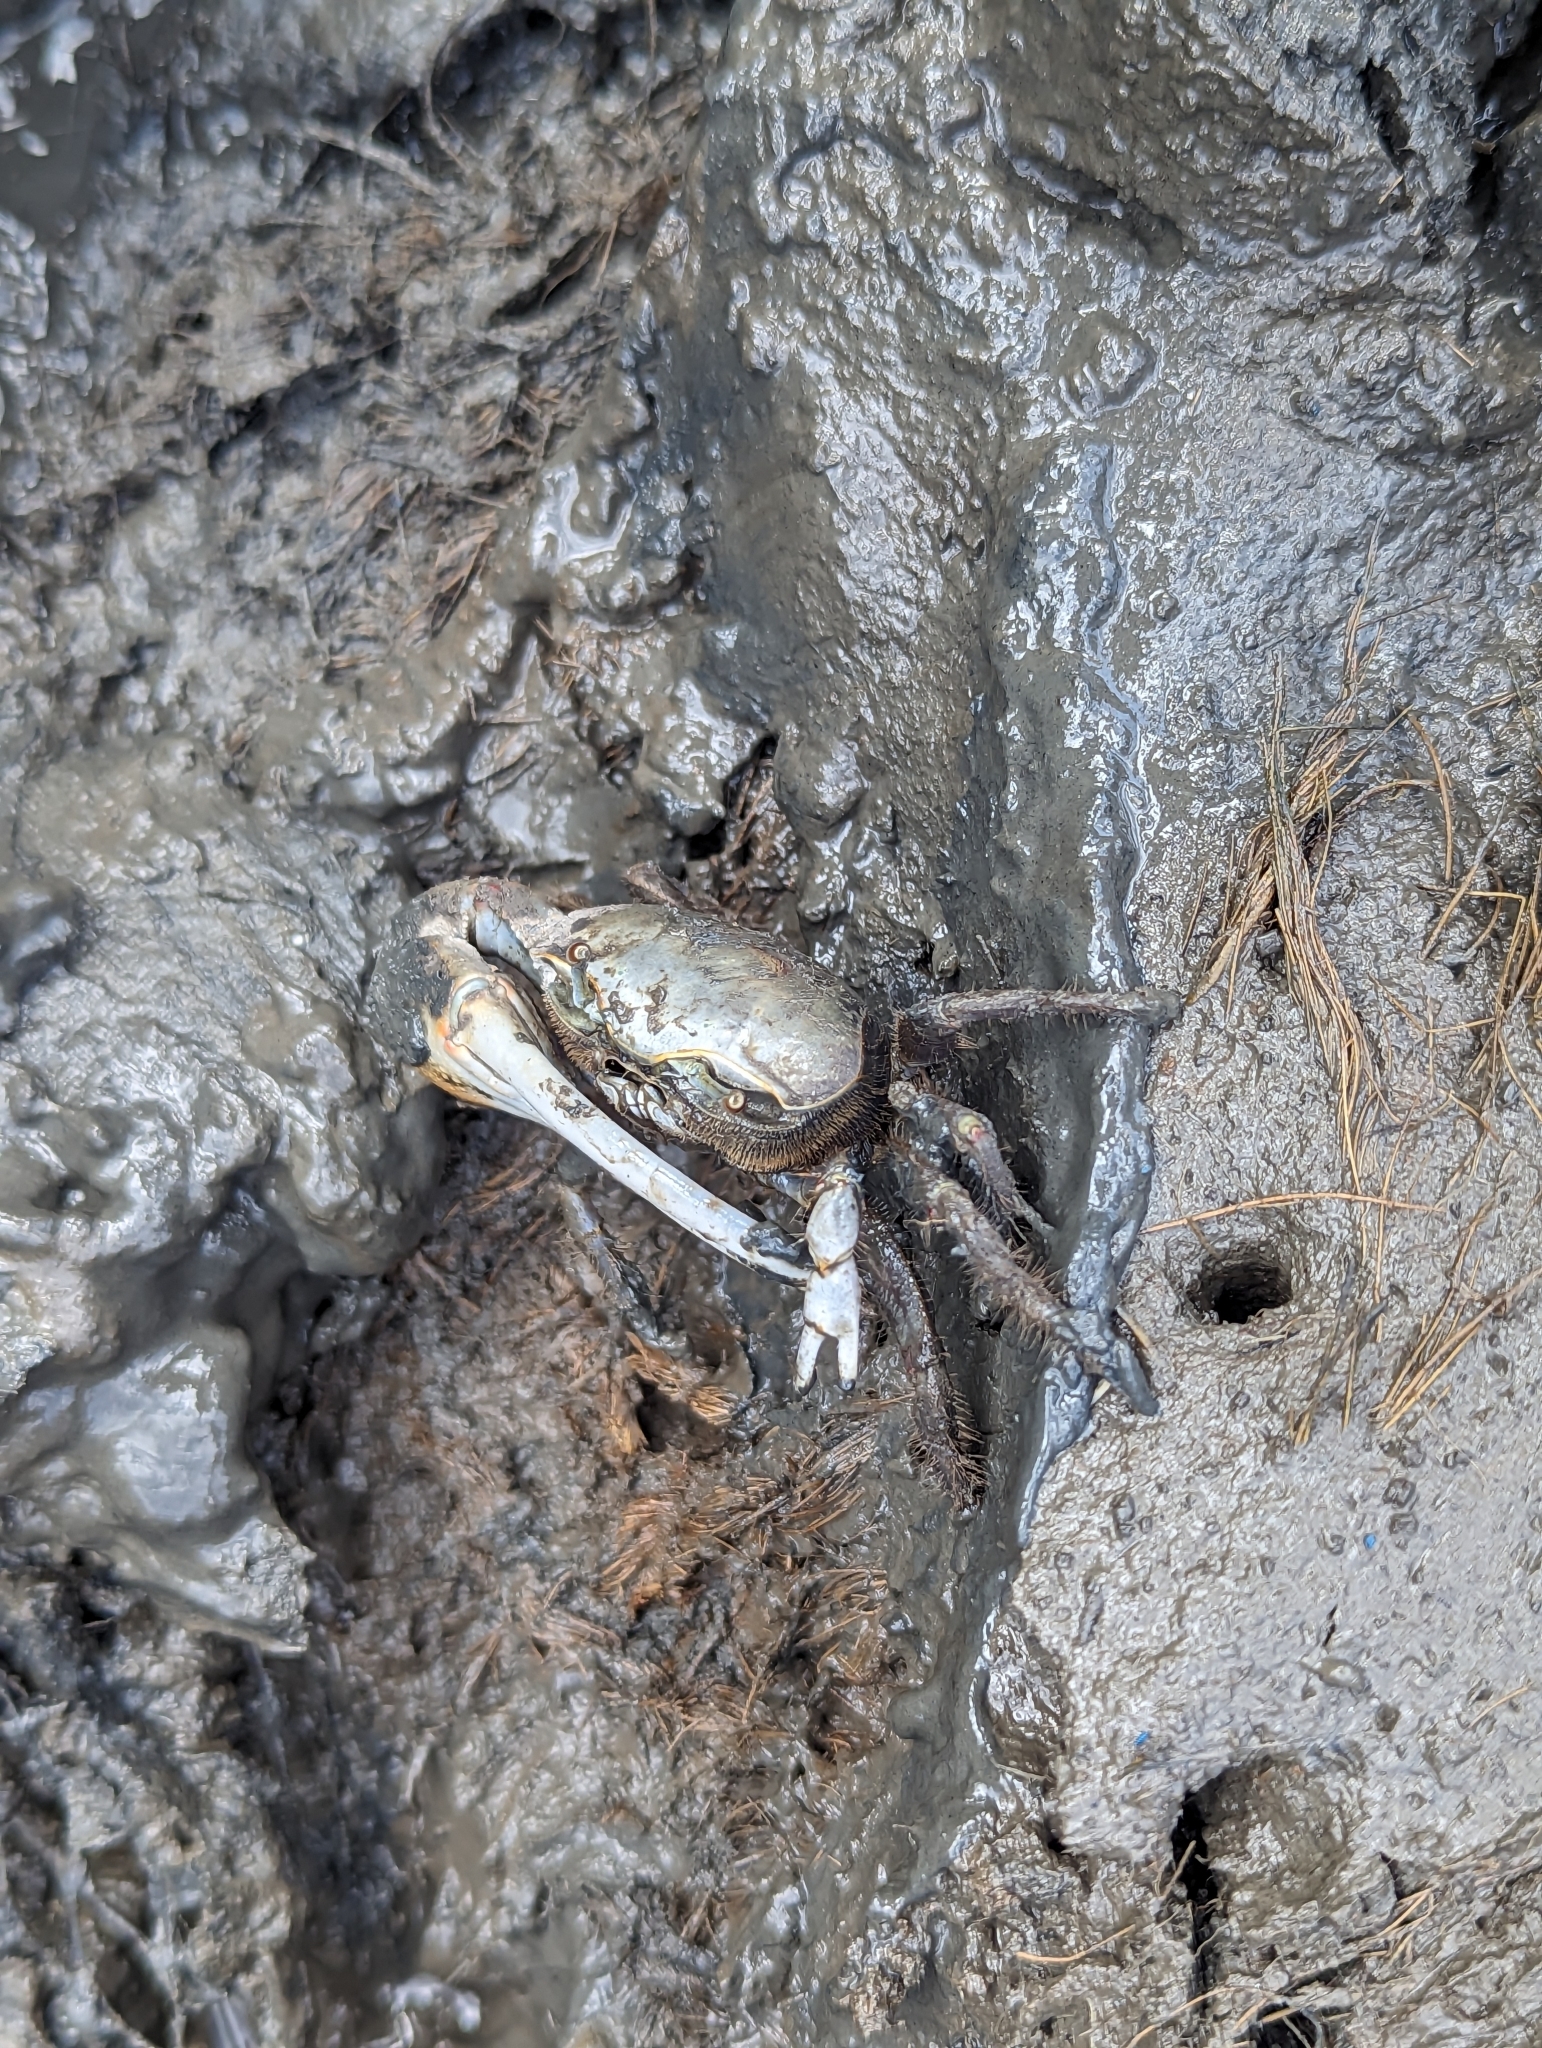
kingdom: Animalia
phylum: Arthropoda
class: Malacostraca
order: Decapoda
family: Ocypodidae
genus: Minuca
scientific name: Minuca minax
